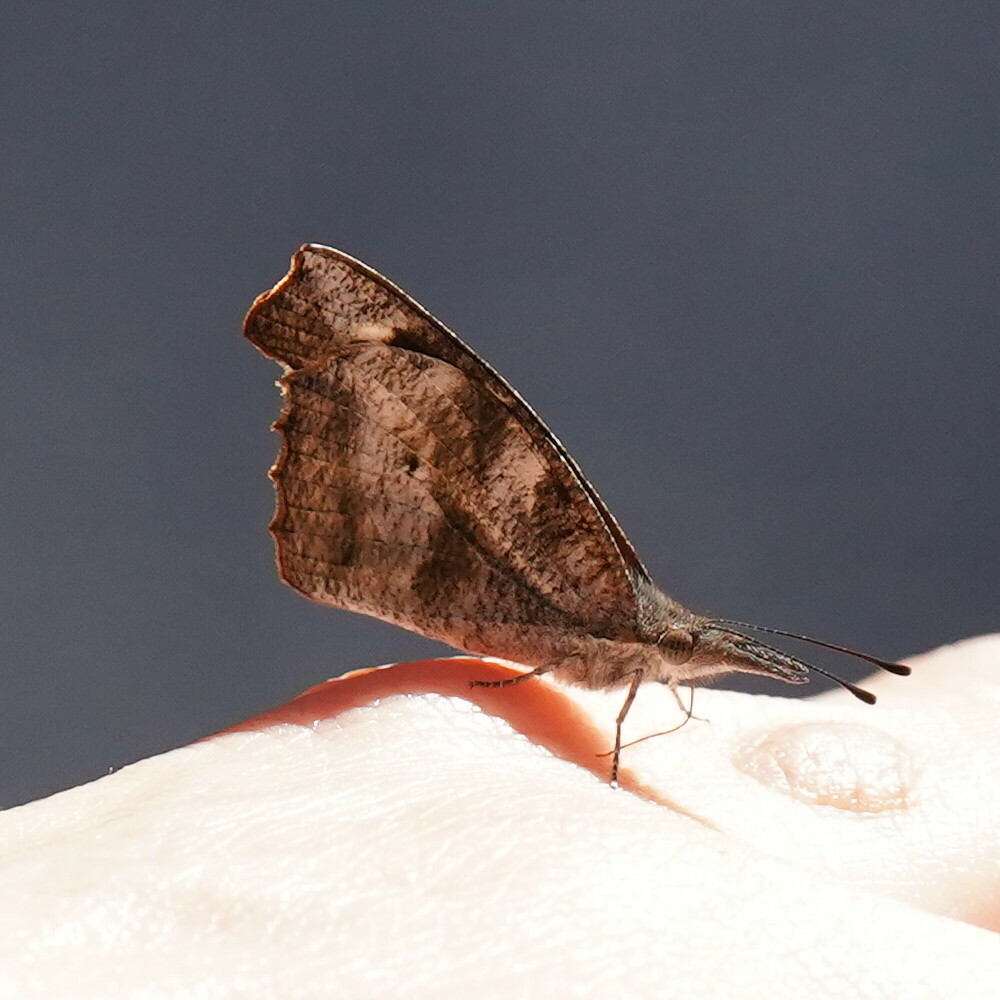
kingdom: Animalia
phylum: Arthropoda
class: Insecta
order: Lepidoptera
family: Nymphalidae
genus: Libytheana
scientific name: Libytheana carinenta
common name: American snout
